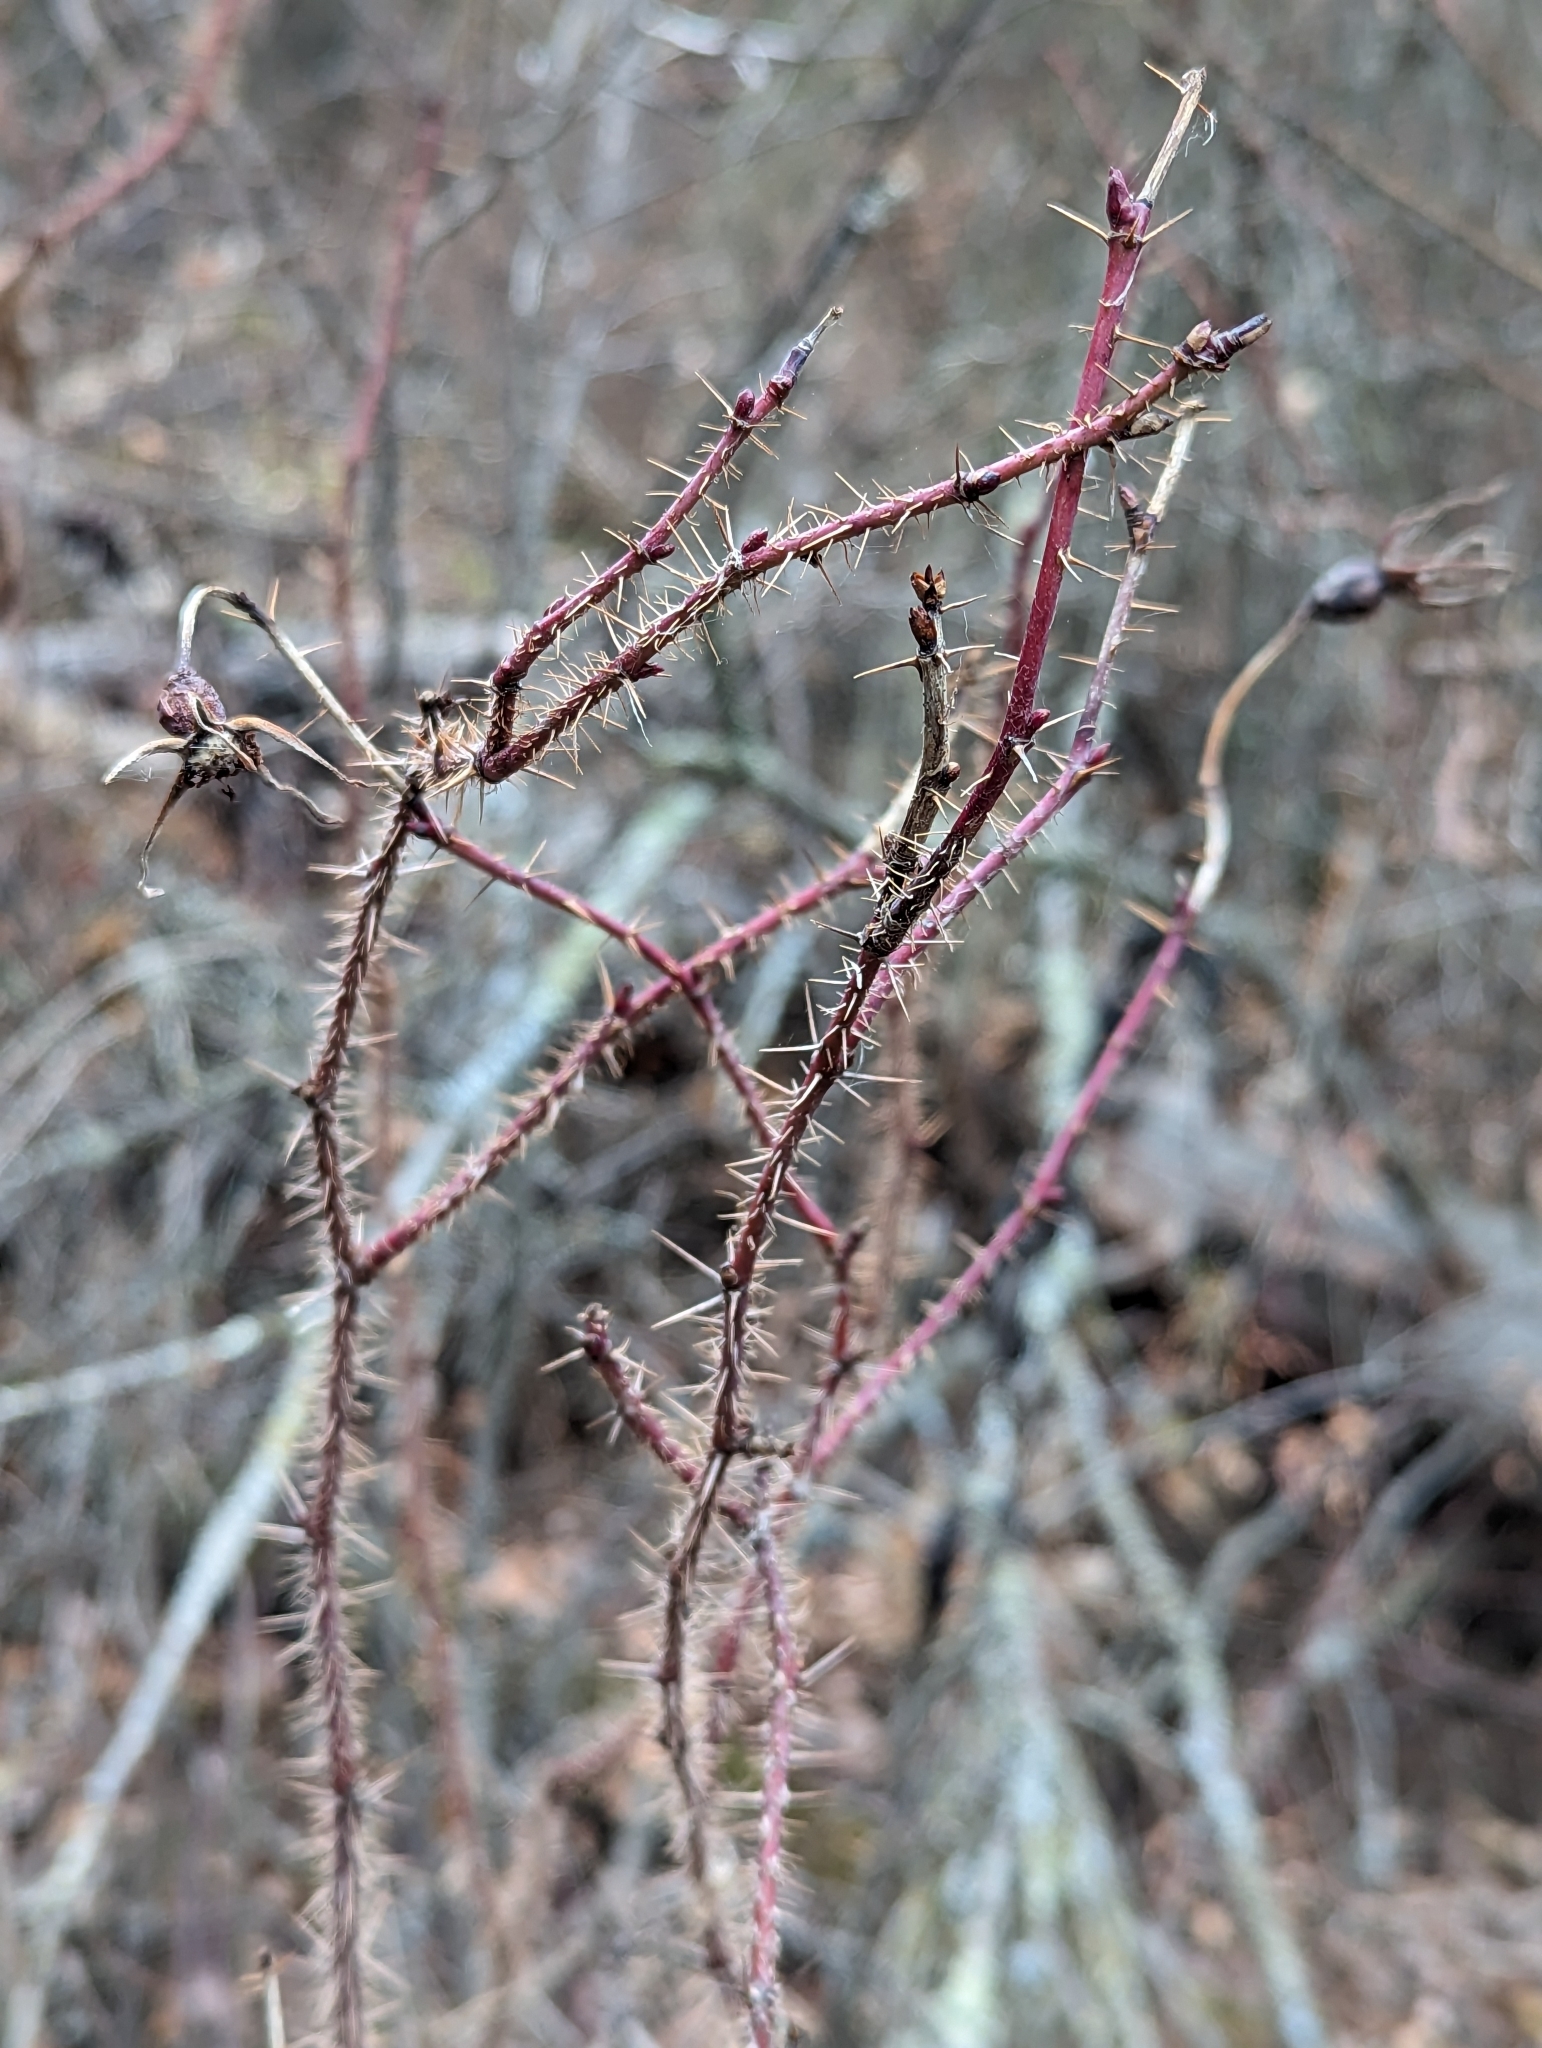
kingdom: Plantae
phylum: Tracheophyta
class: Magnoliopsida
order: Rosales
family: Rosaceae
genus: Rosa
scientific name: Rosa acicularis
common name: Prickly rose
